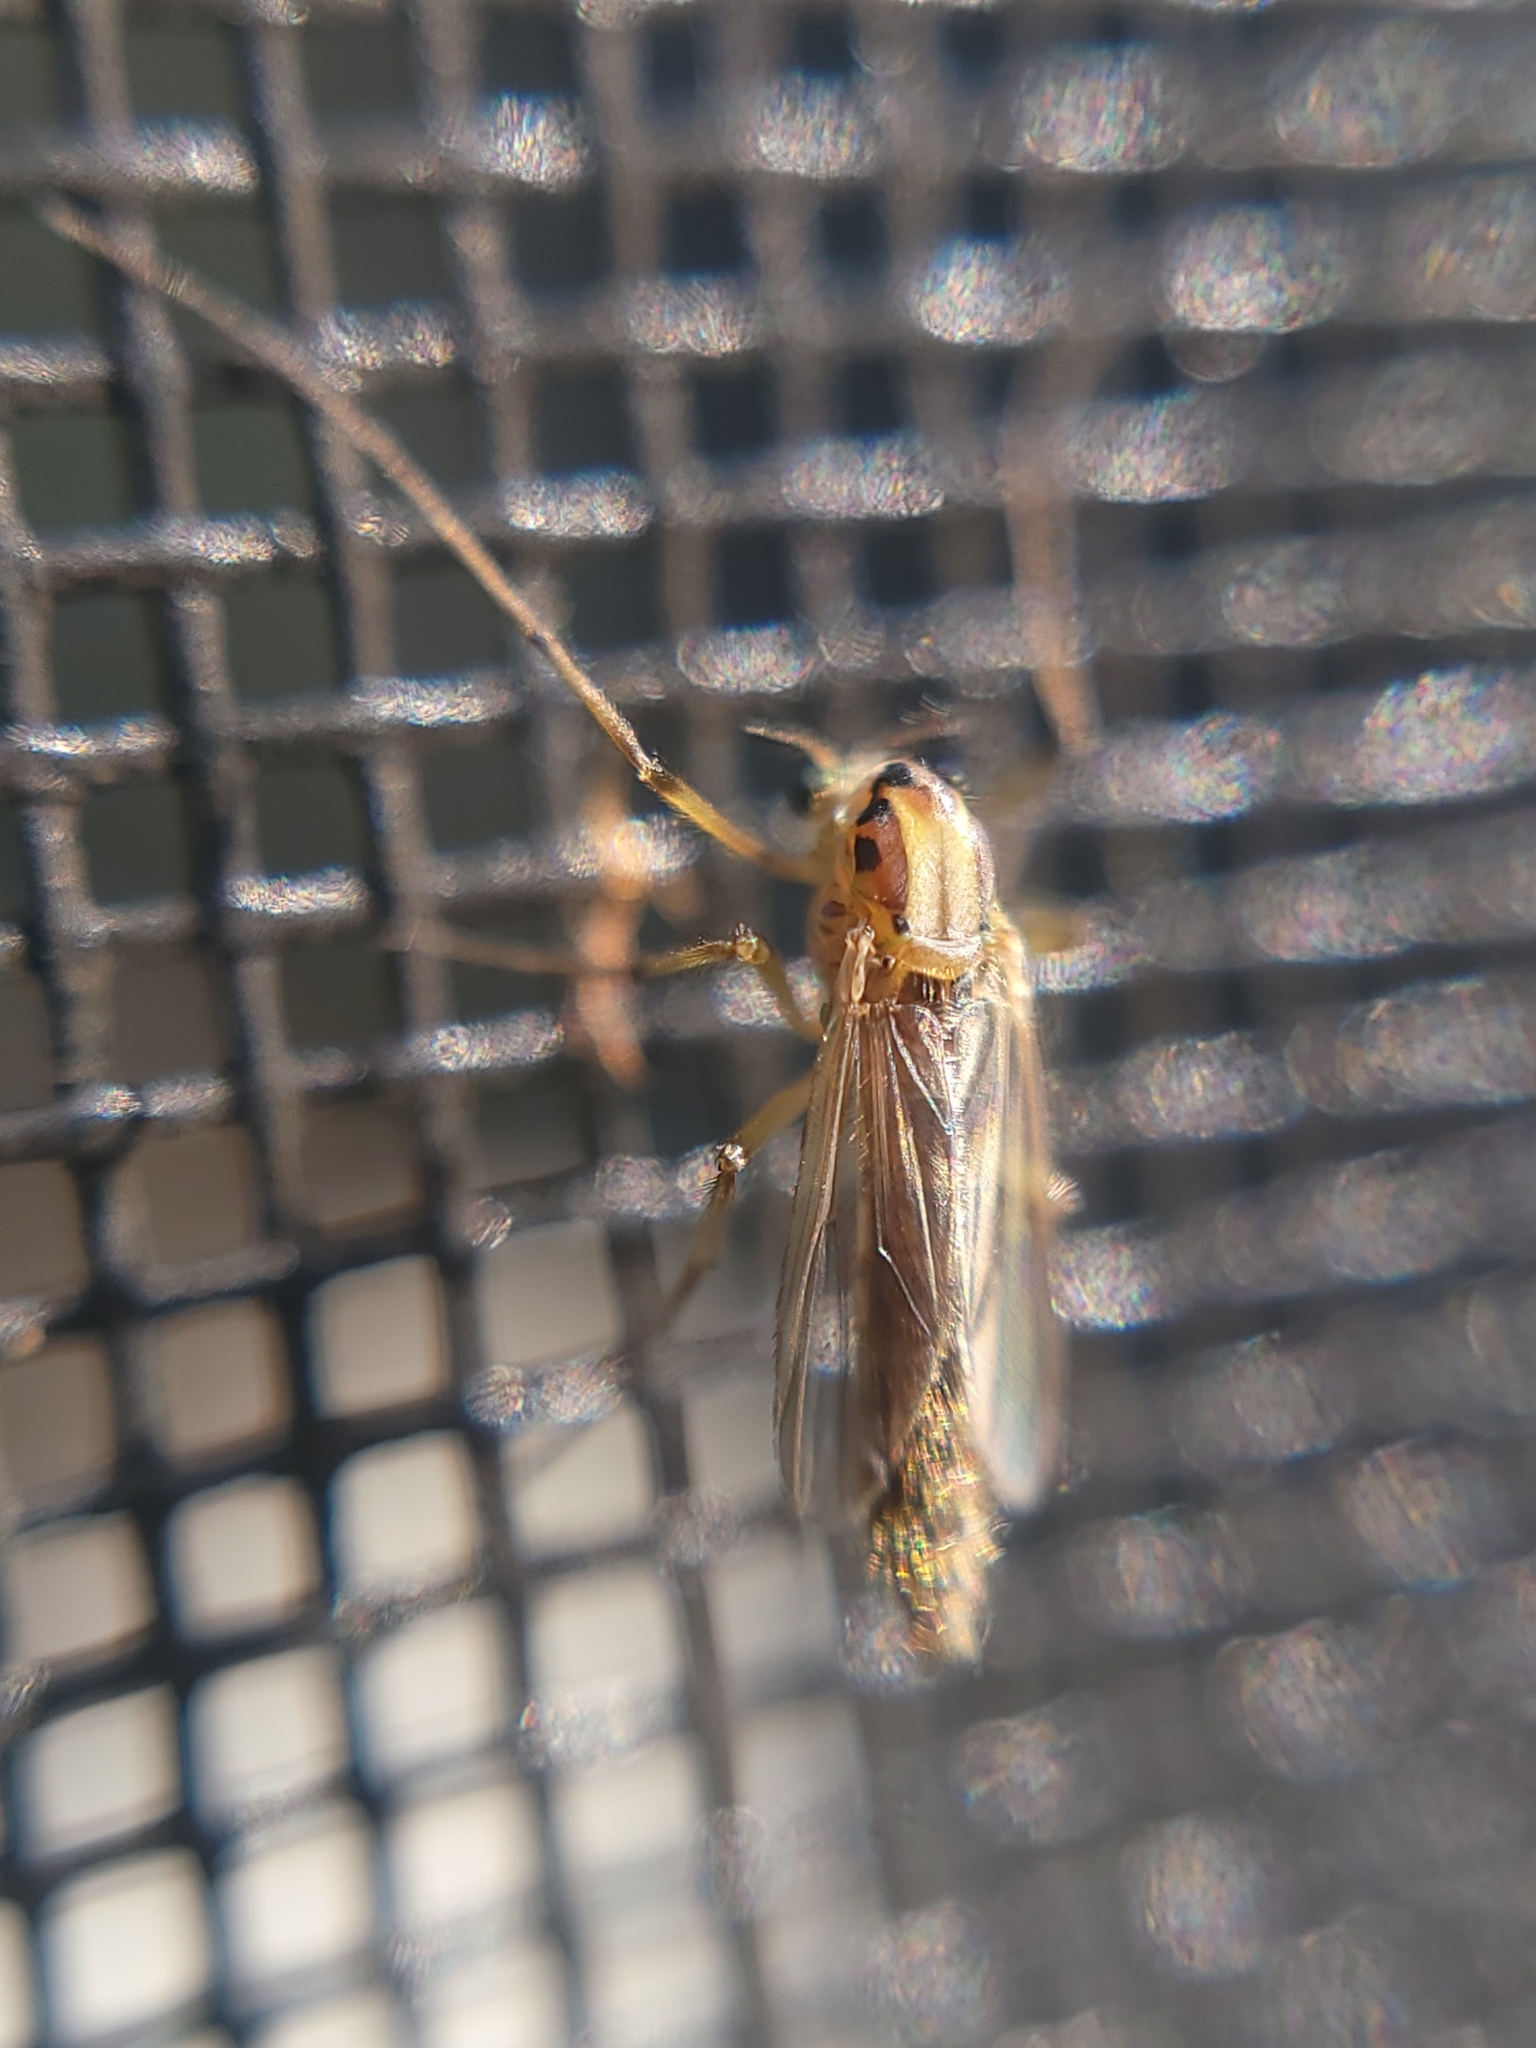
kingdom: Animalia
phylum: Arthropoda
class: Insecta
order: Diptera
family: Chironomidae
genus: Goeldichironomus
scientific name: Goeldichironomus carus
